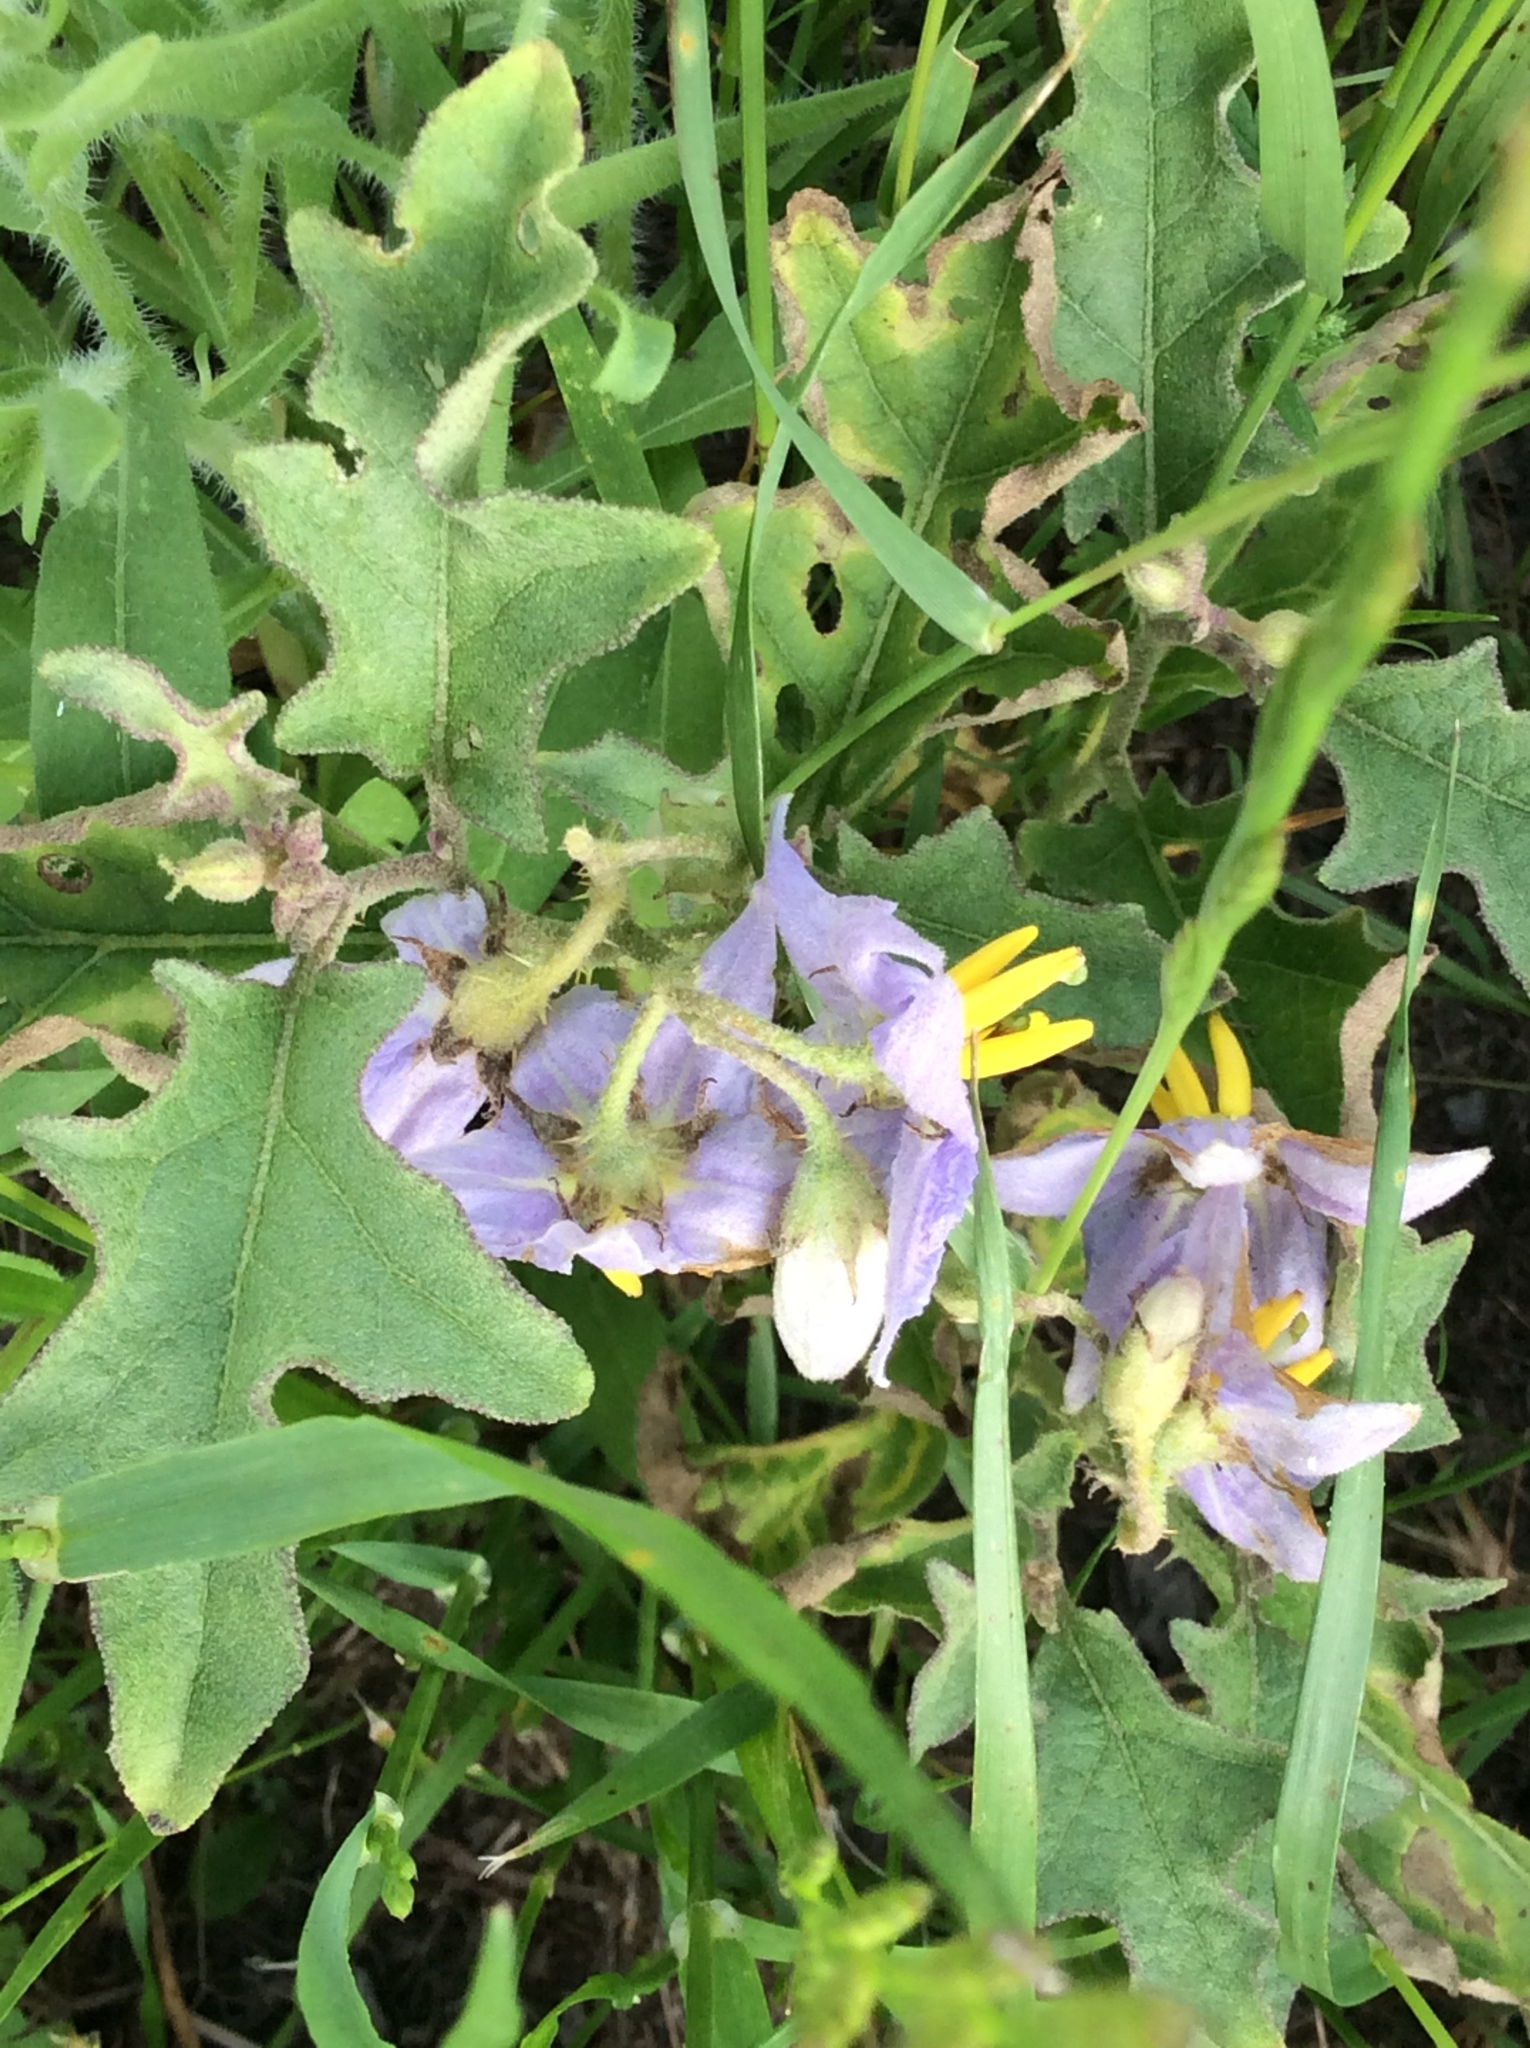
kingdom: Plantae
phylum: Tracheophyta
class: Magnoliopsida
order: Solanales
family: Solanaceae
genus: Solanum
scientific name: Solanum dimidiatum
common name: Carolina horse-nettle
